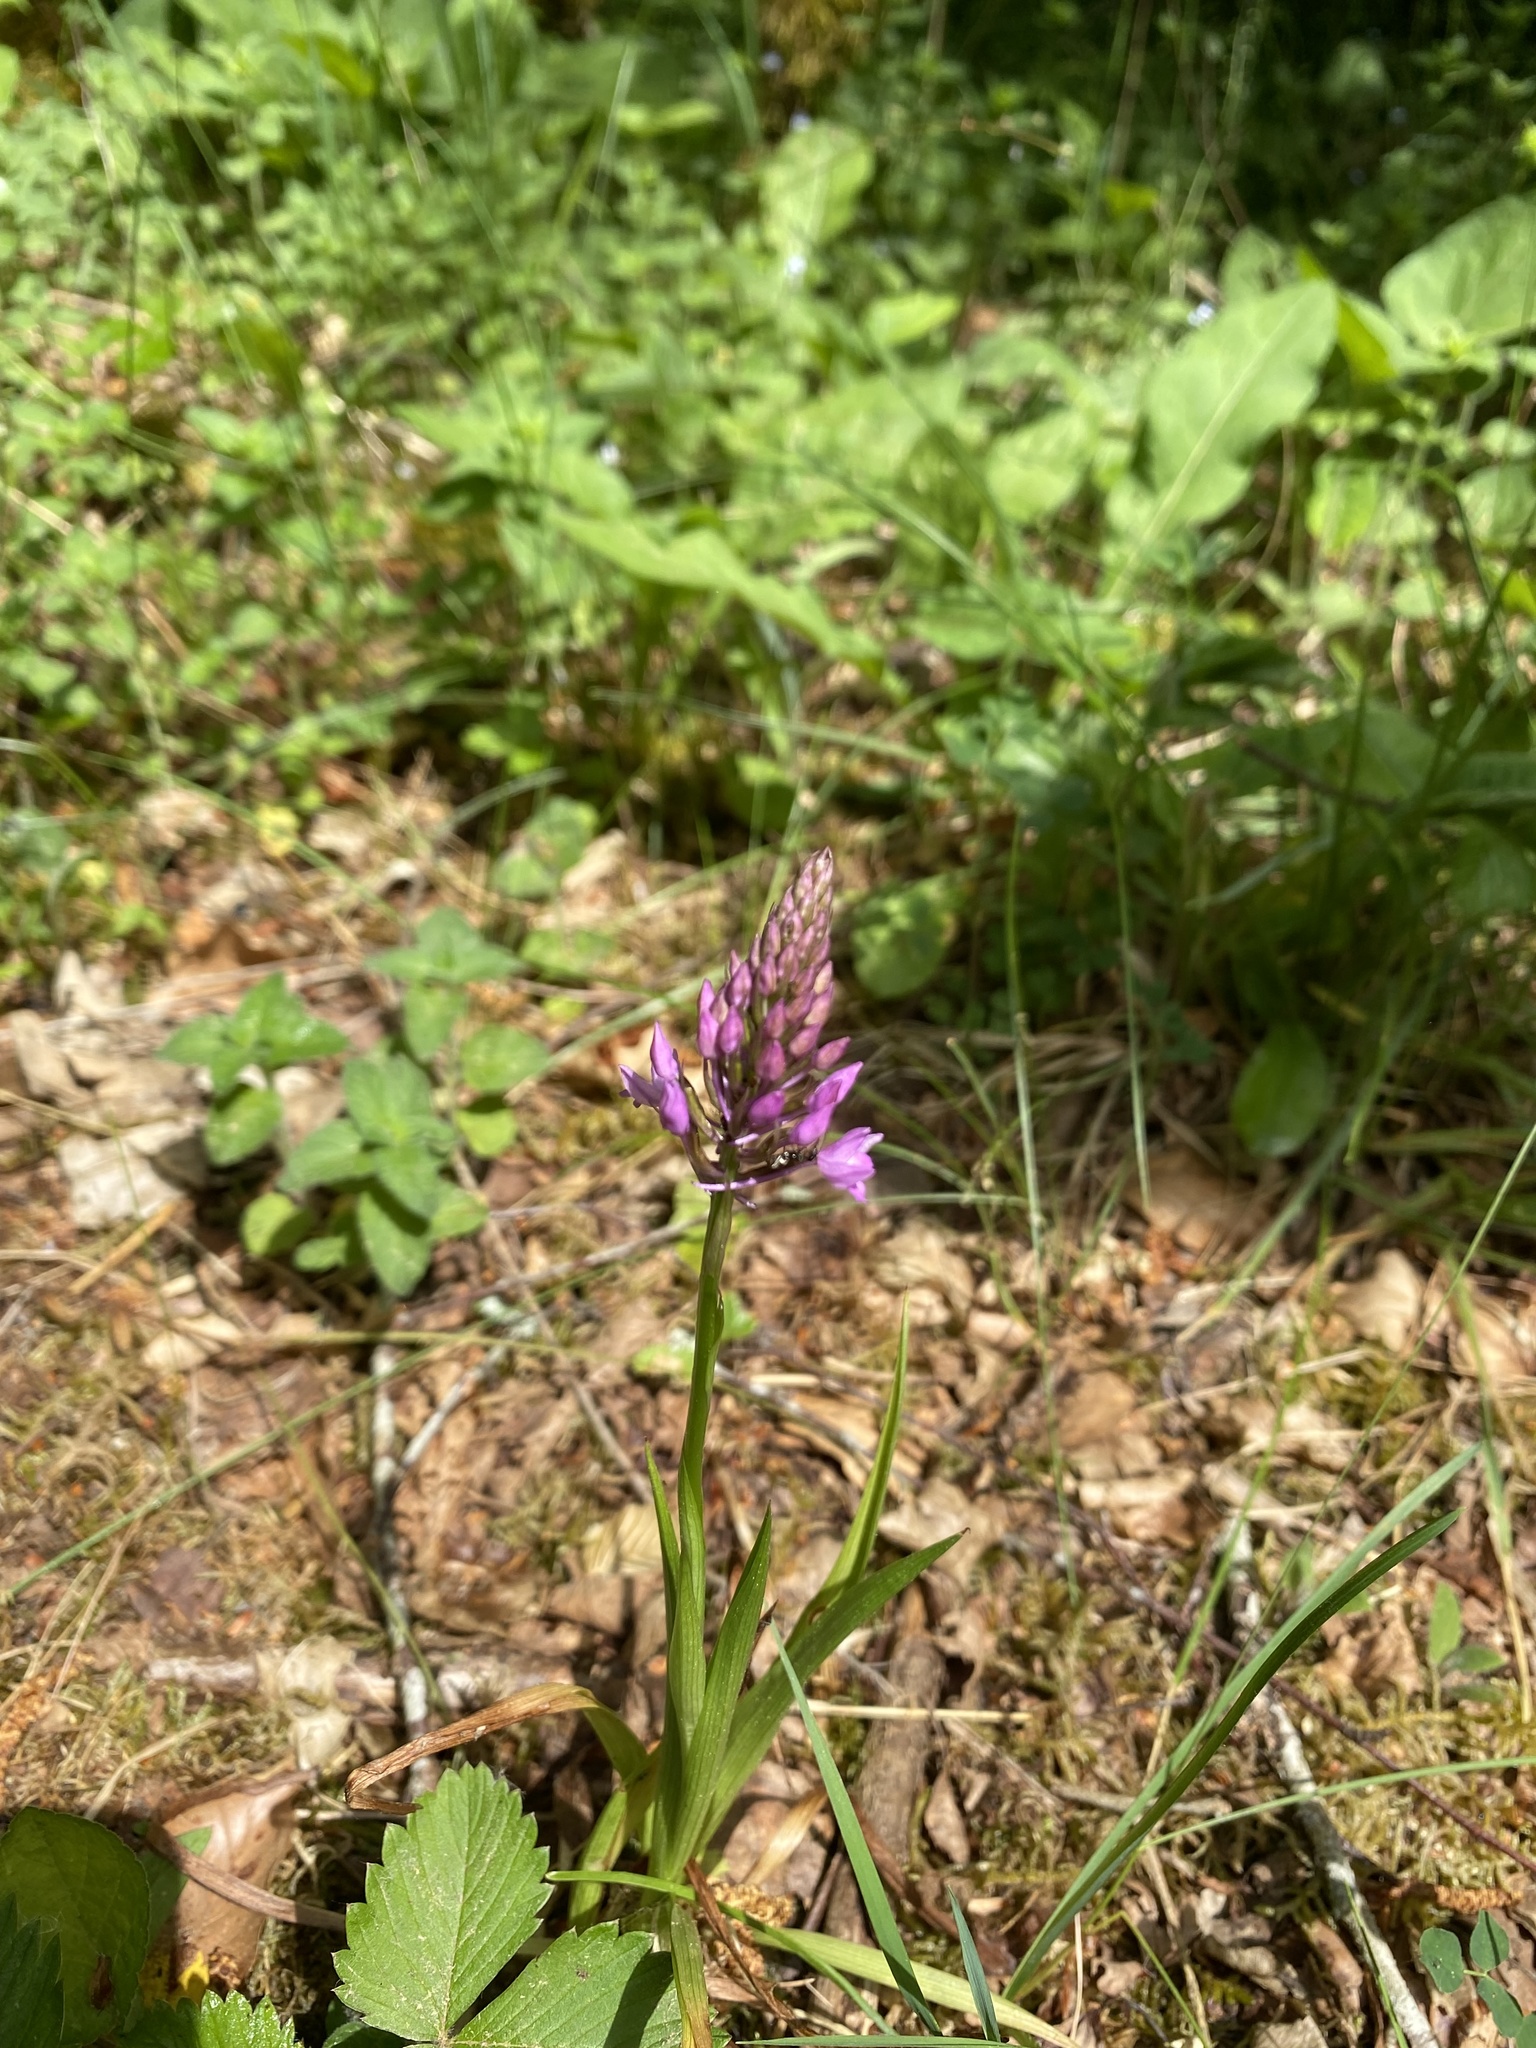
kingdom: Plantae
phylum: Tracheophyta
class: Liliopsida
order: Asparagales
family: Orchidaceae
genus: Anacamptis
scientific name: Anacamptis pyramidalis
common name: Pyramidal orchid
